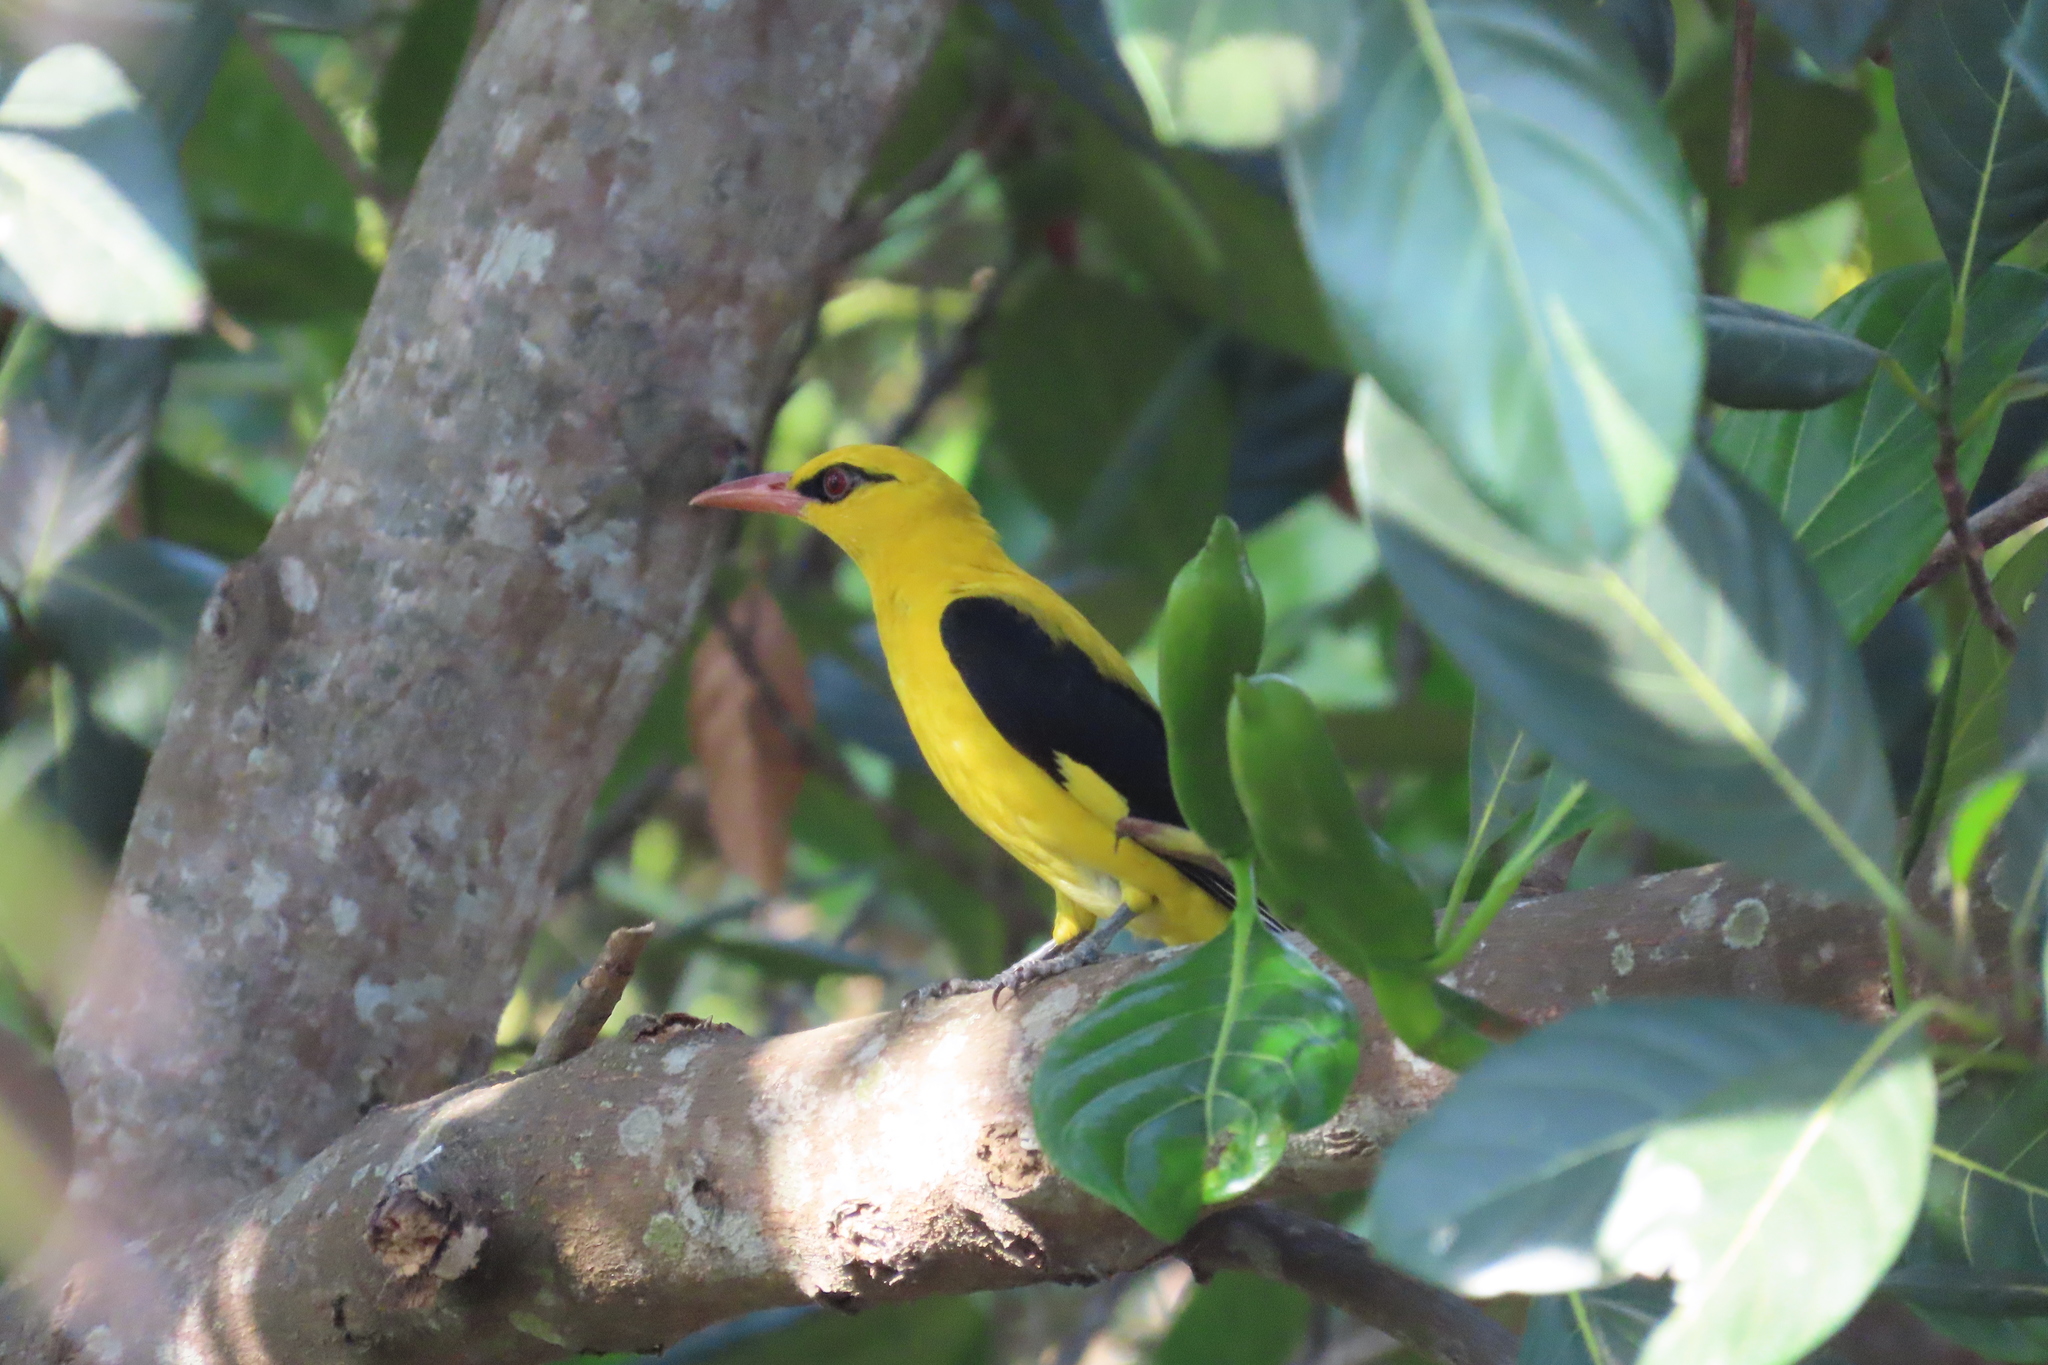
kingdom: Animalia
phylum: Chordata
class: Aves
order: Passeriformes
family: Oriolidae
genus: Oriolus
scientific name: Oriolus kundoo
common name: Indian golden oriole
